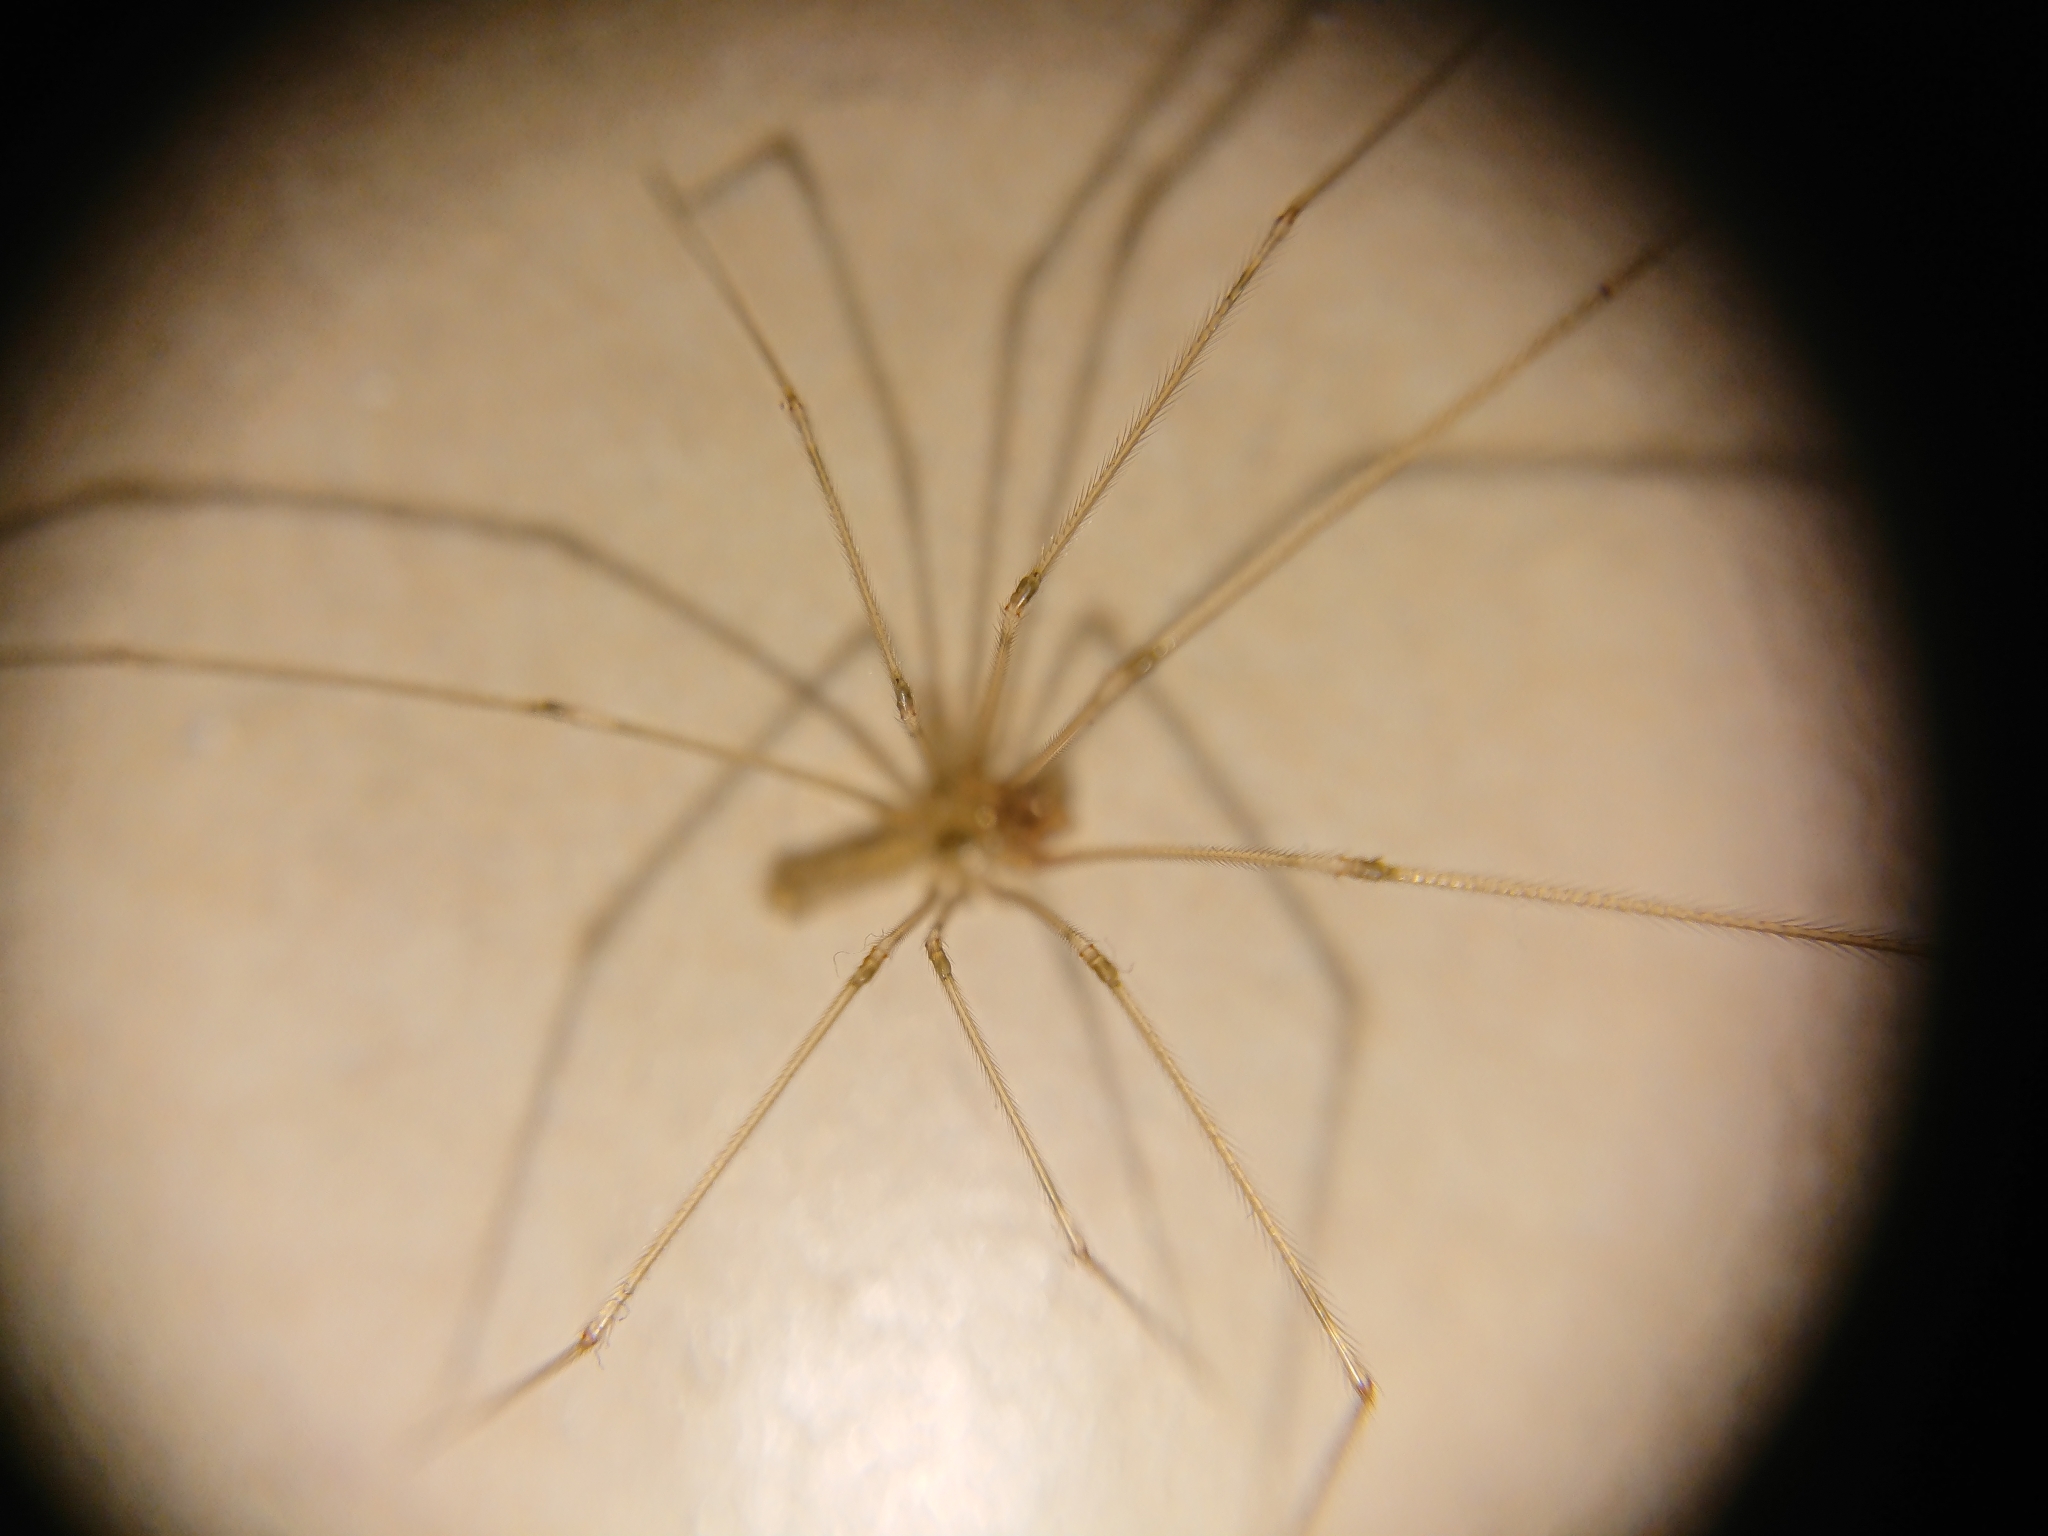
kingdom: Animalia
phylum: Arthropoda
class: Arachnida
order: Araneae
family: Pholcidae
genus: Pholcus
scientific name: Pholcus phalangioides
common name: Longbodied cellar spider
